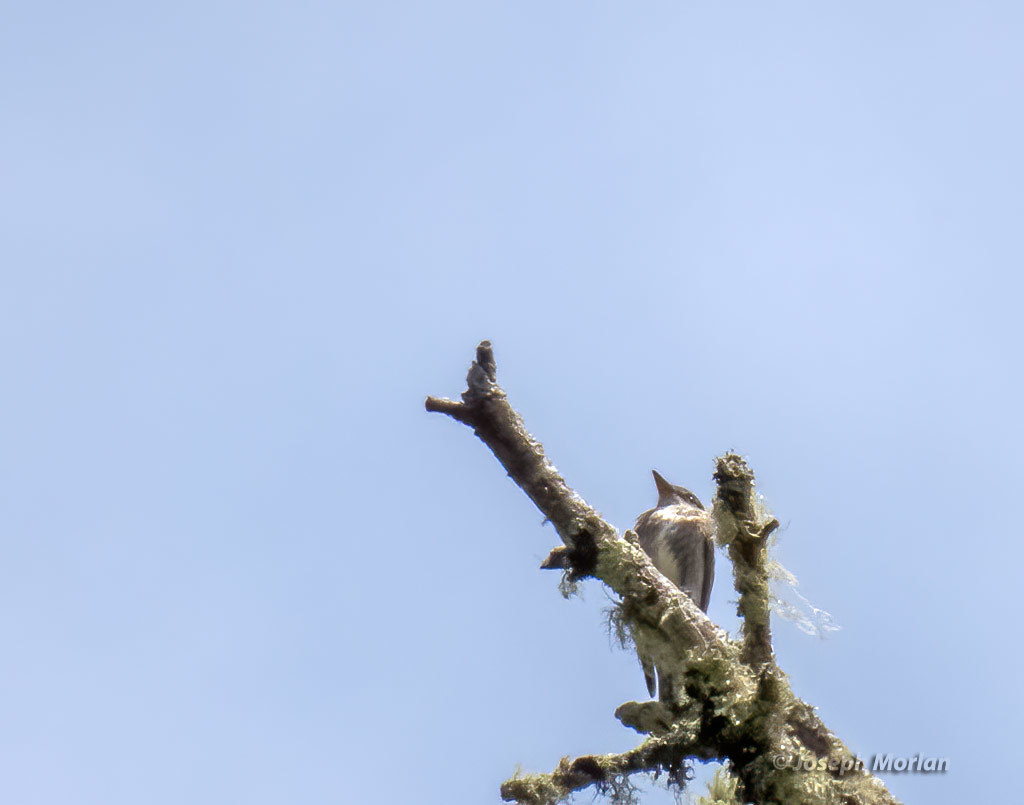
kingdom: Animalia
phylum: Chordata
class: Aves
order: Passeriformes
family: Tyrannidae
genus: Contopus
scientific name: Contopus cooperi
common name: Olive-sided flycatcher
